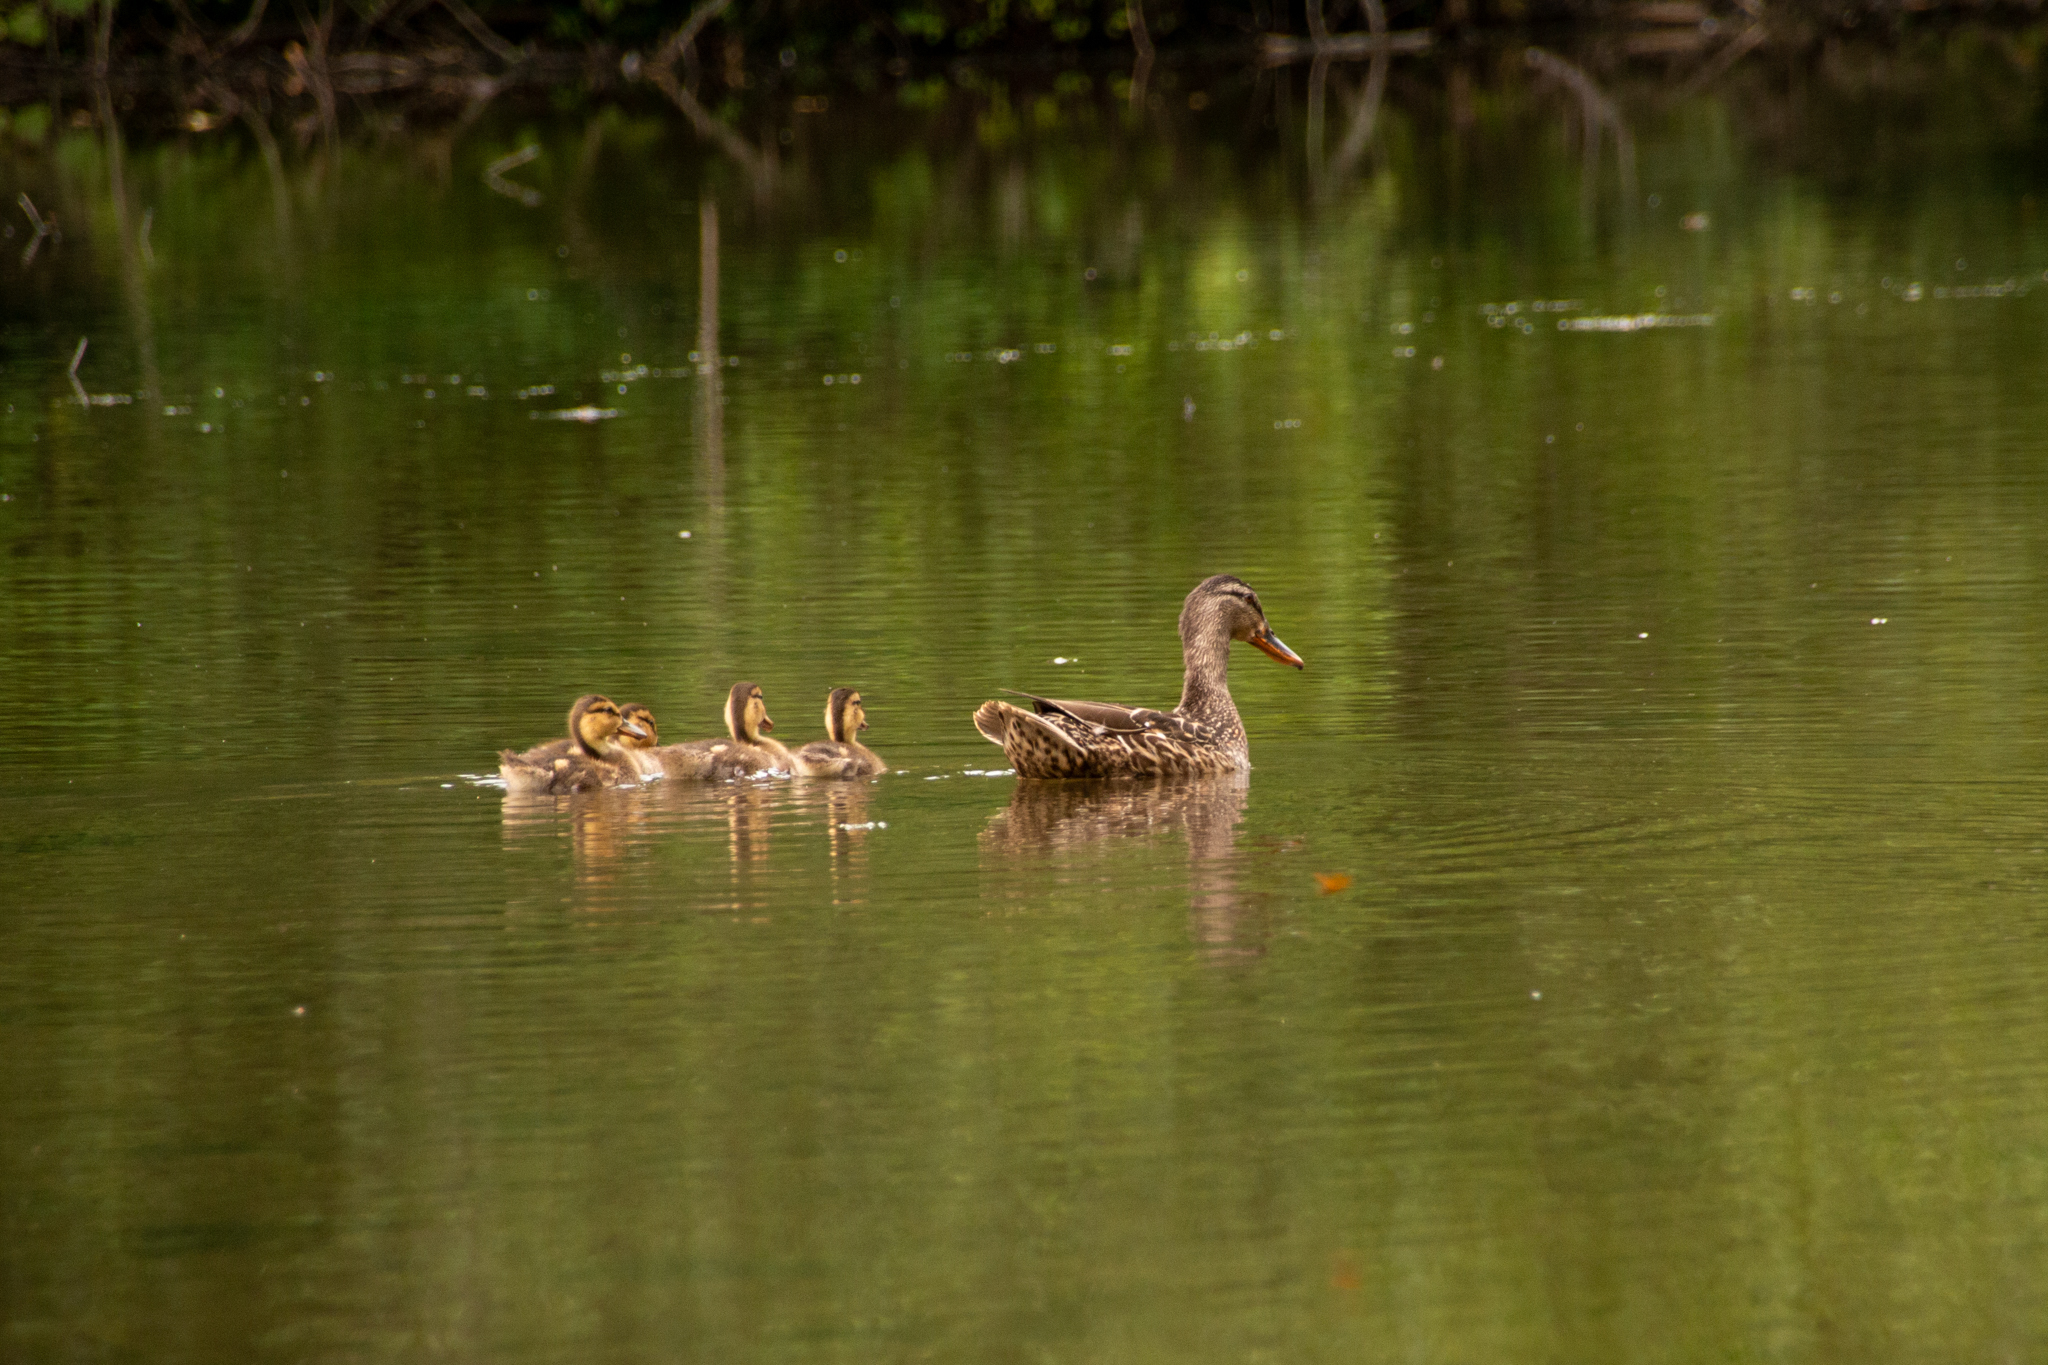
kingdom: Animalia
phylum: Chordata
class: Aves
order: Anseriformes
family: Anatidae
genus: Anas
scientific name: Anas platyrhynchos
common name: Mallard
